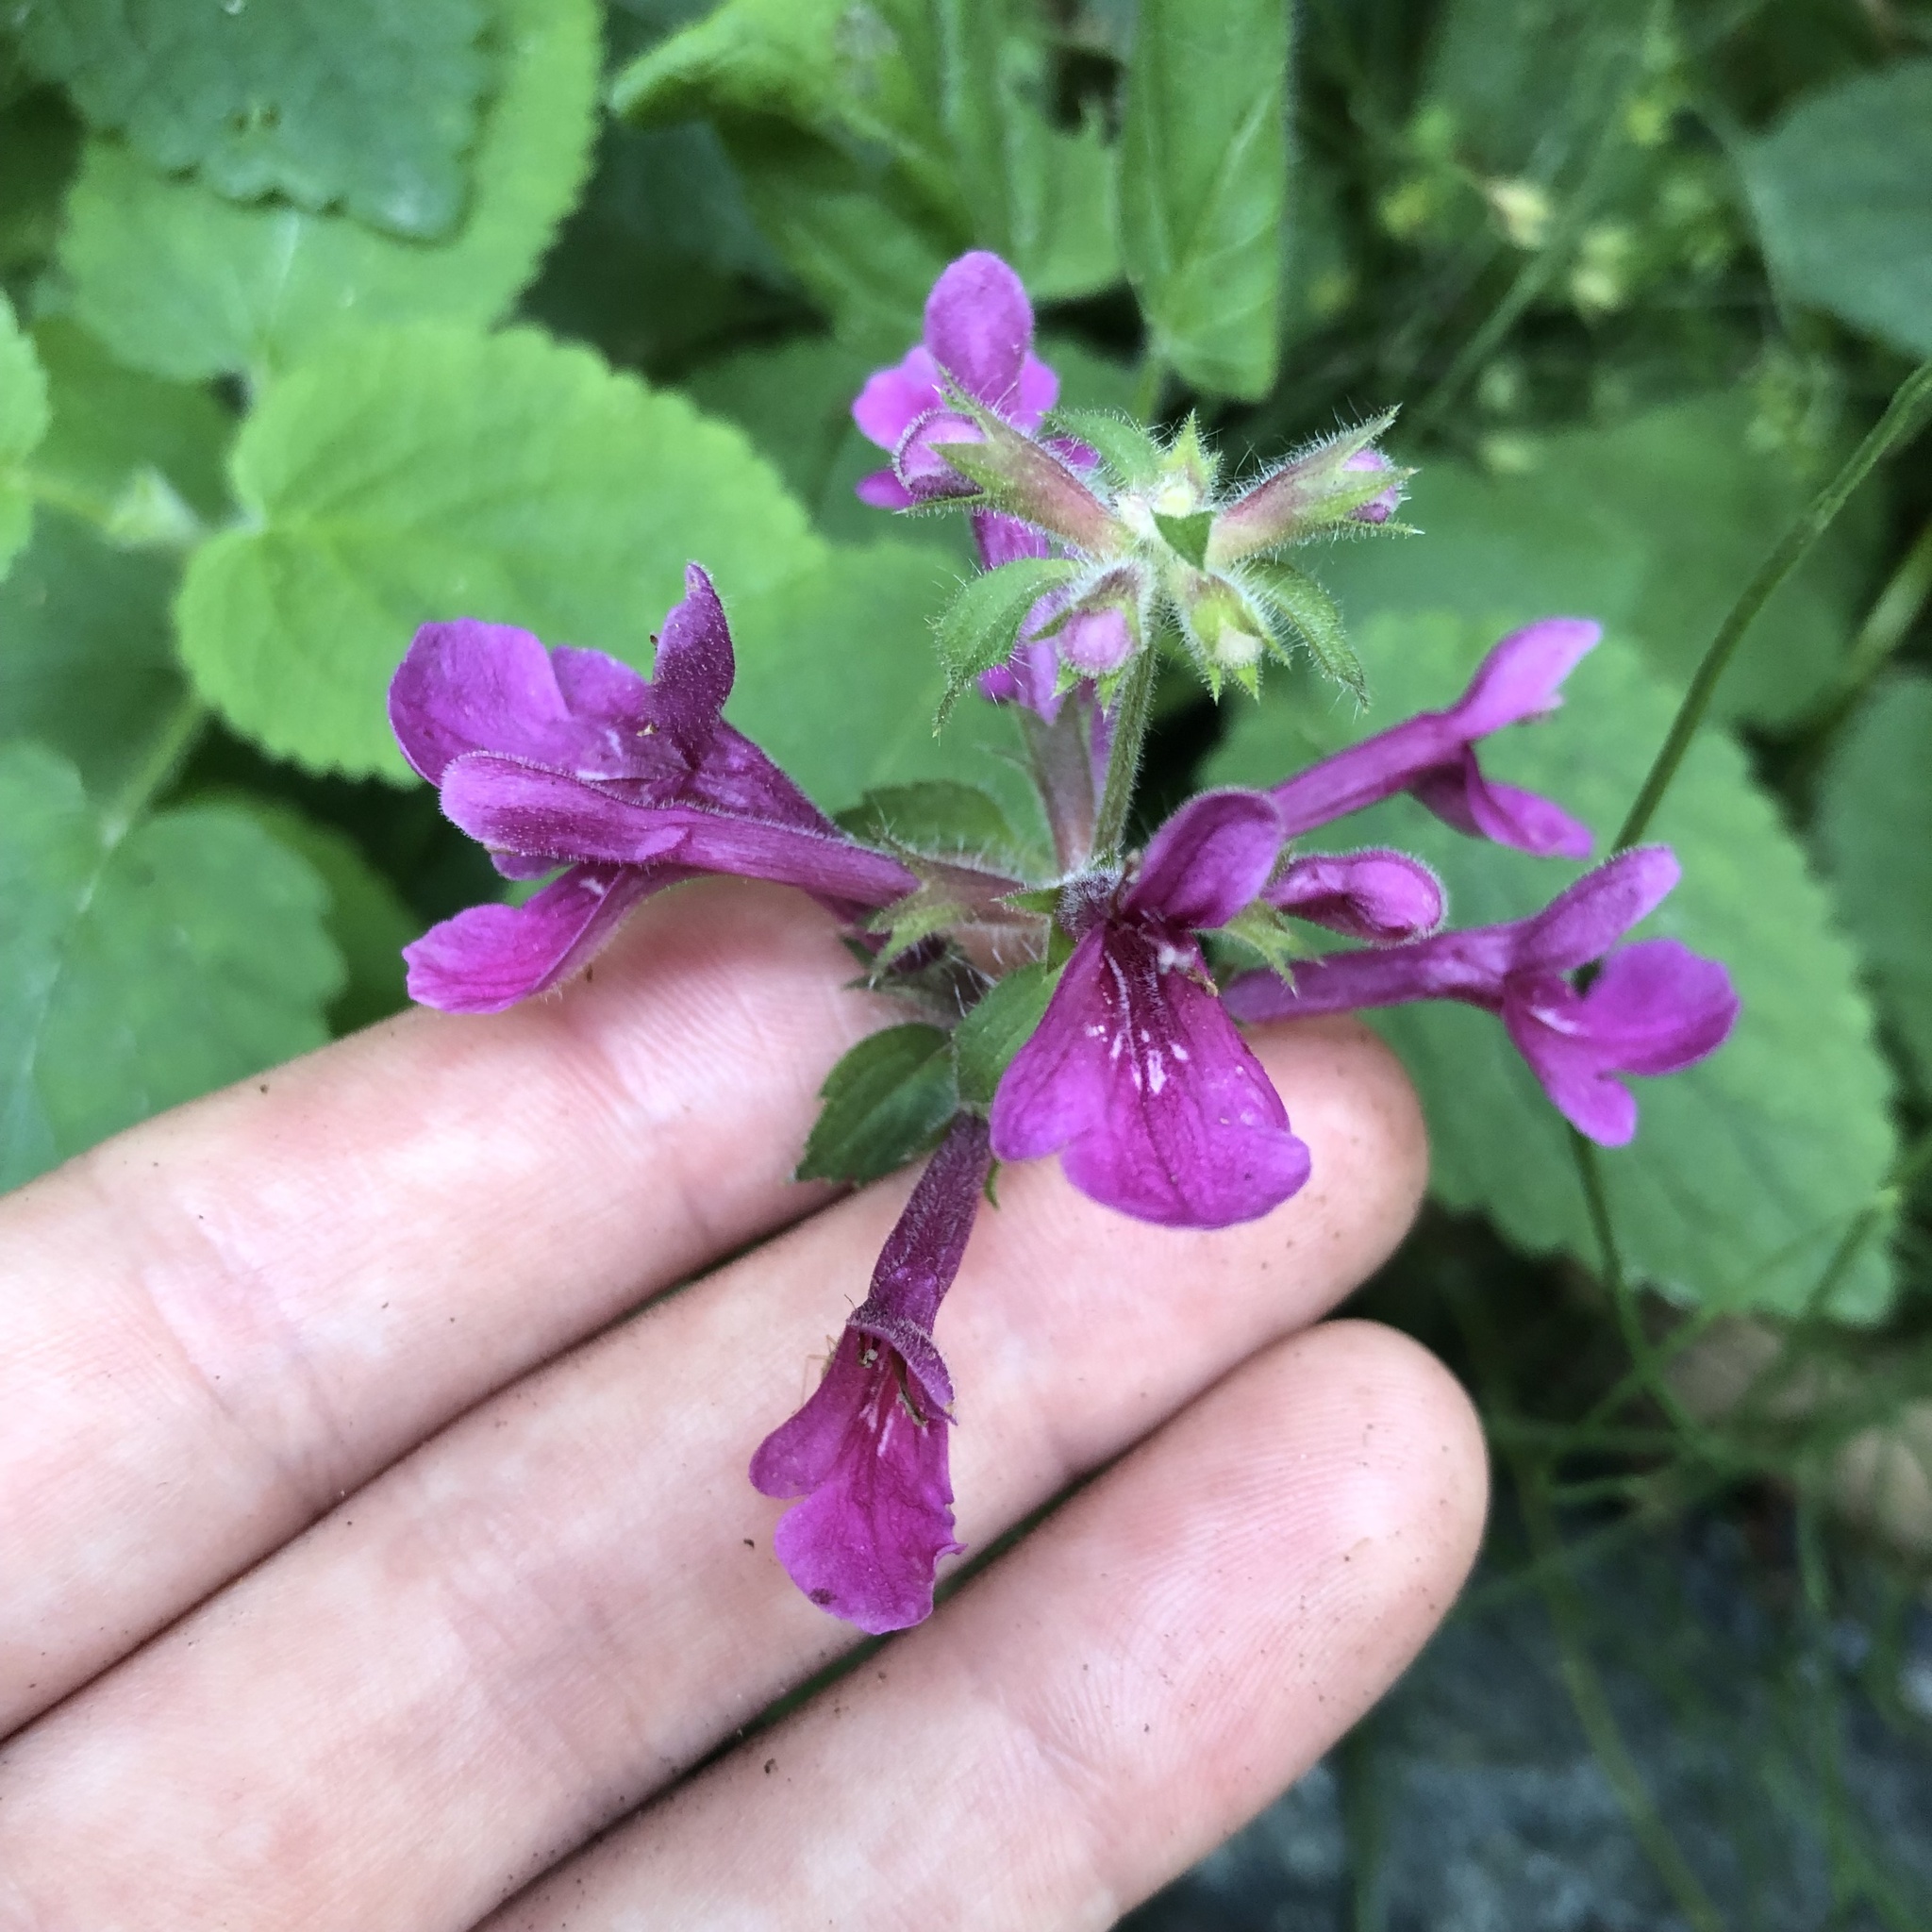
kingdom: Plantae
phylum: Tracheophyta
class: Magnoliopsida
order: Lamiales
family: Lamiaceae
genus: Stachys
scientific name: Stachys chamissonis
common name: Coastal hedge-nettle
